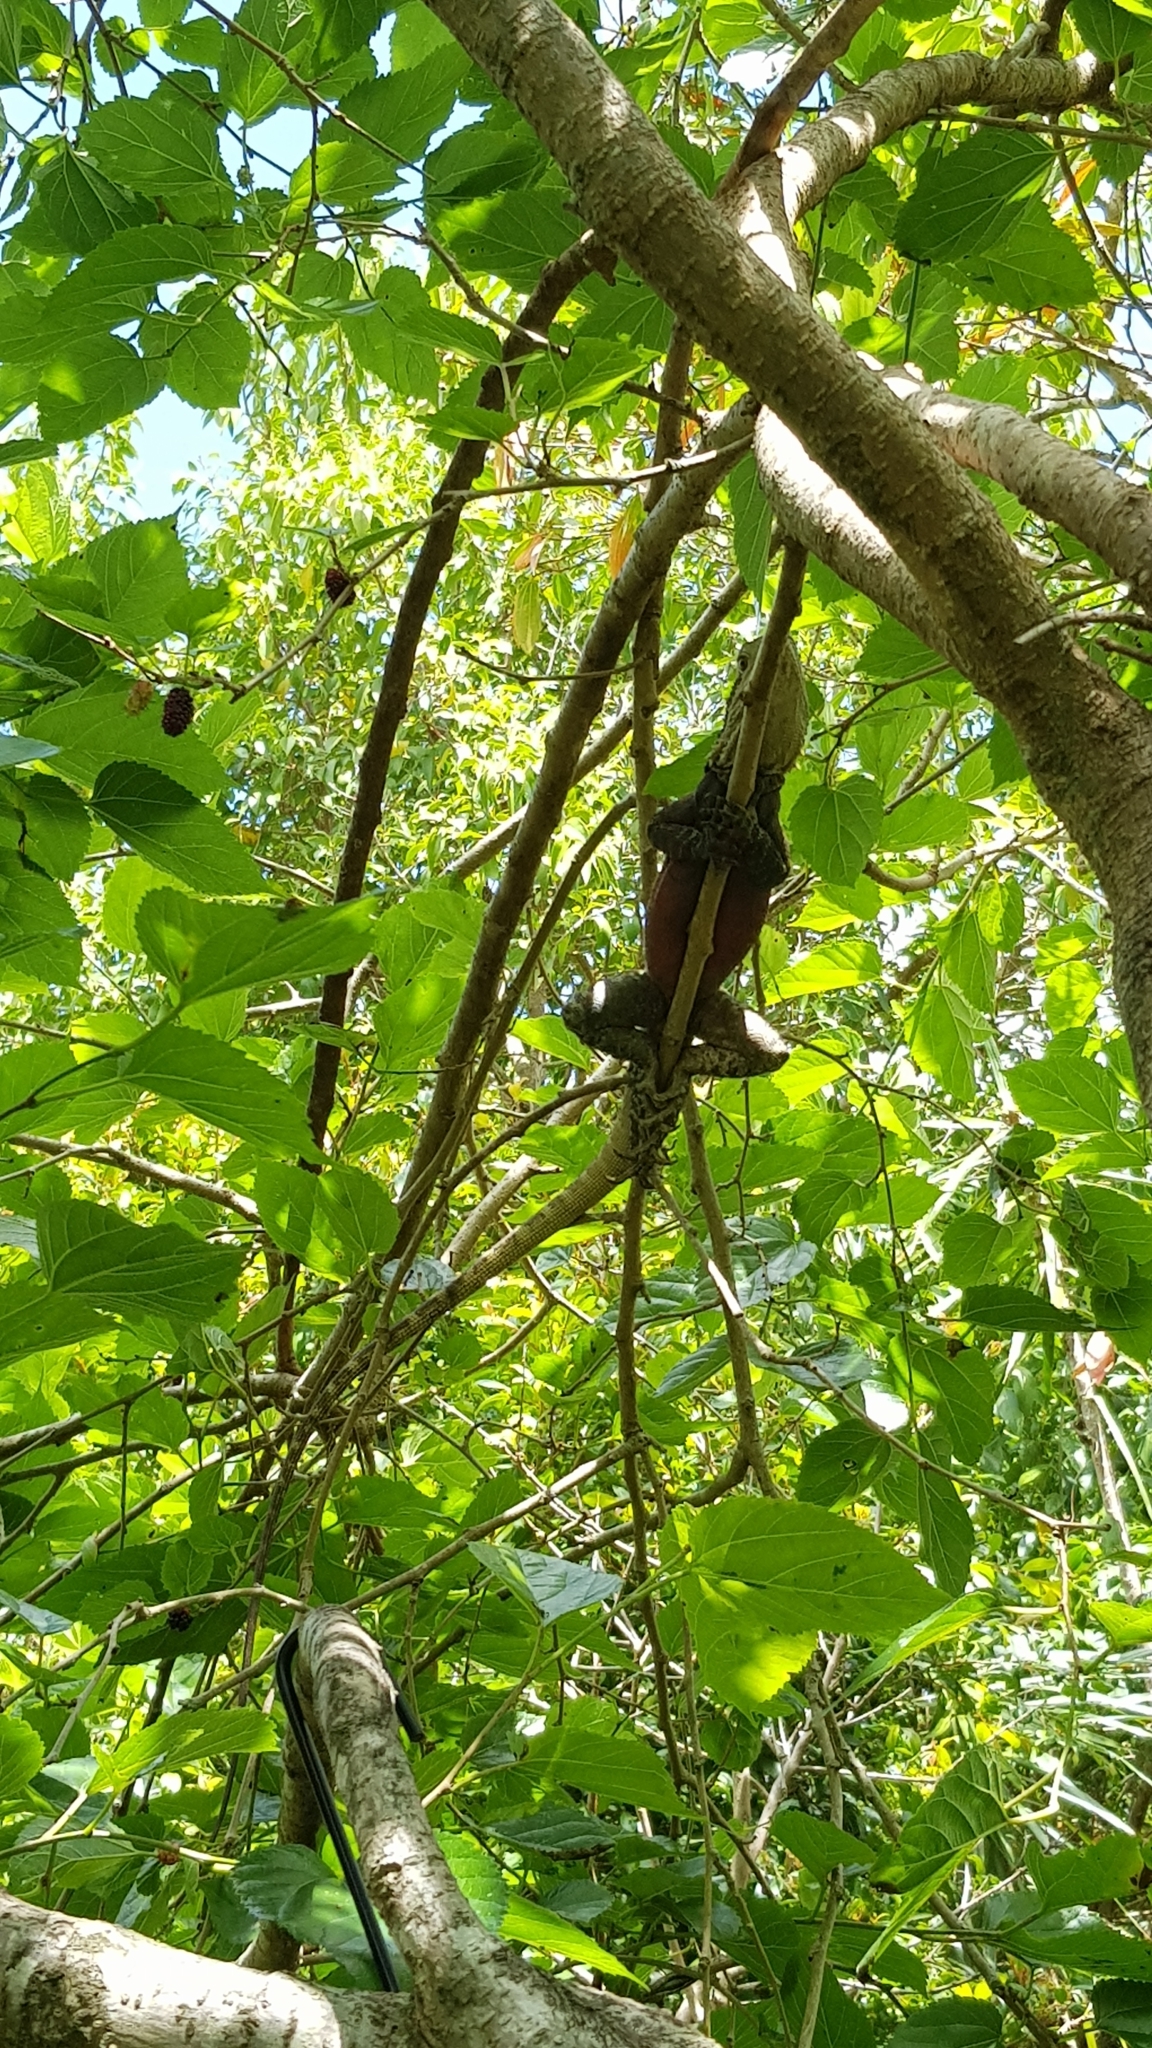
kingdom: Animalia
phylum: Chordata
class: Squamata
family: Agamidae
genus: Intellagama
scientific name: Intellagama lesueurii
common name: Eastern water dragon
